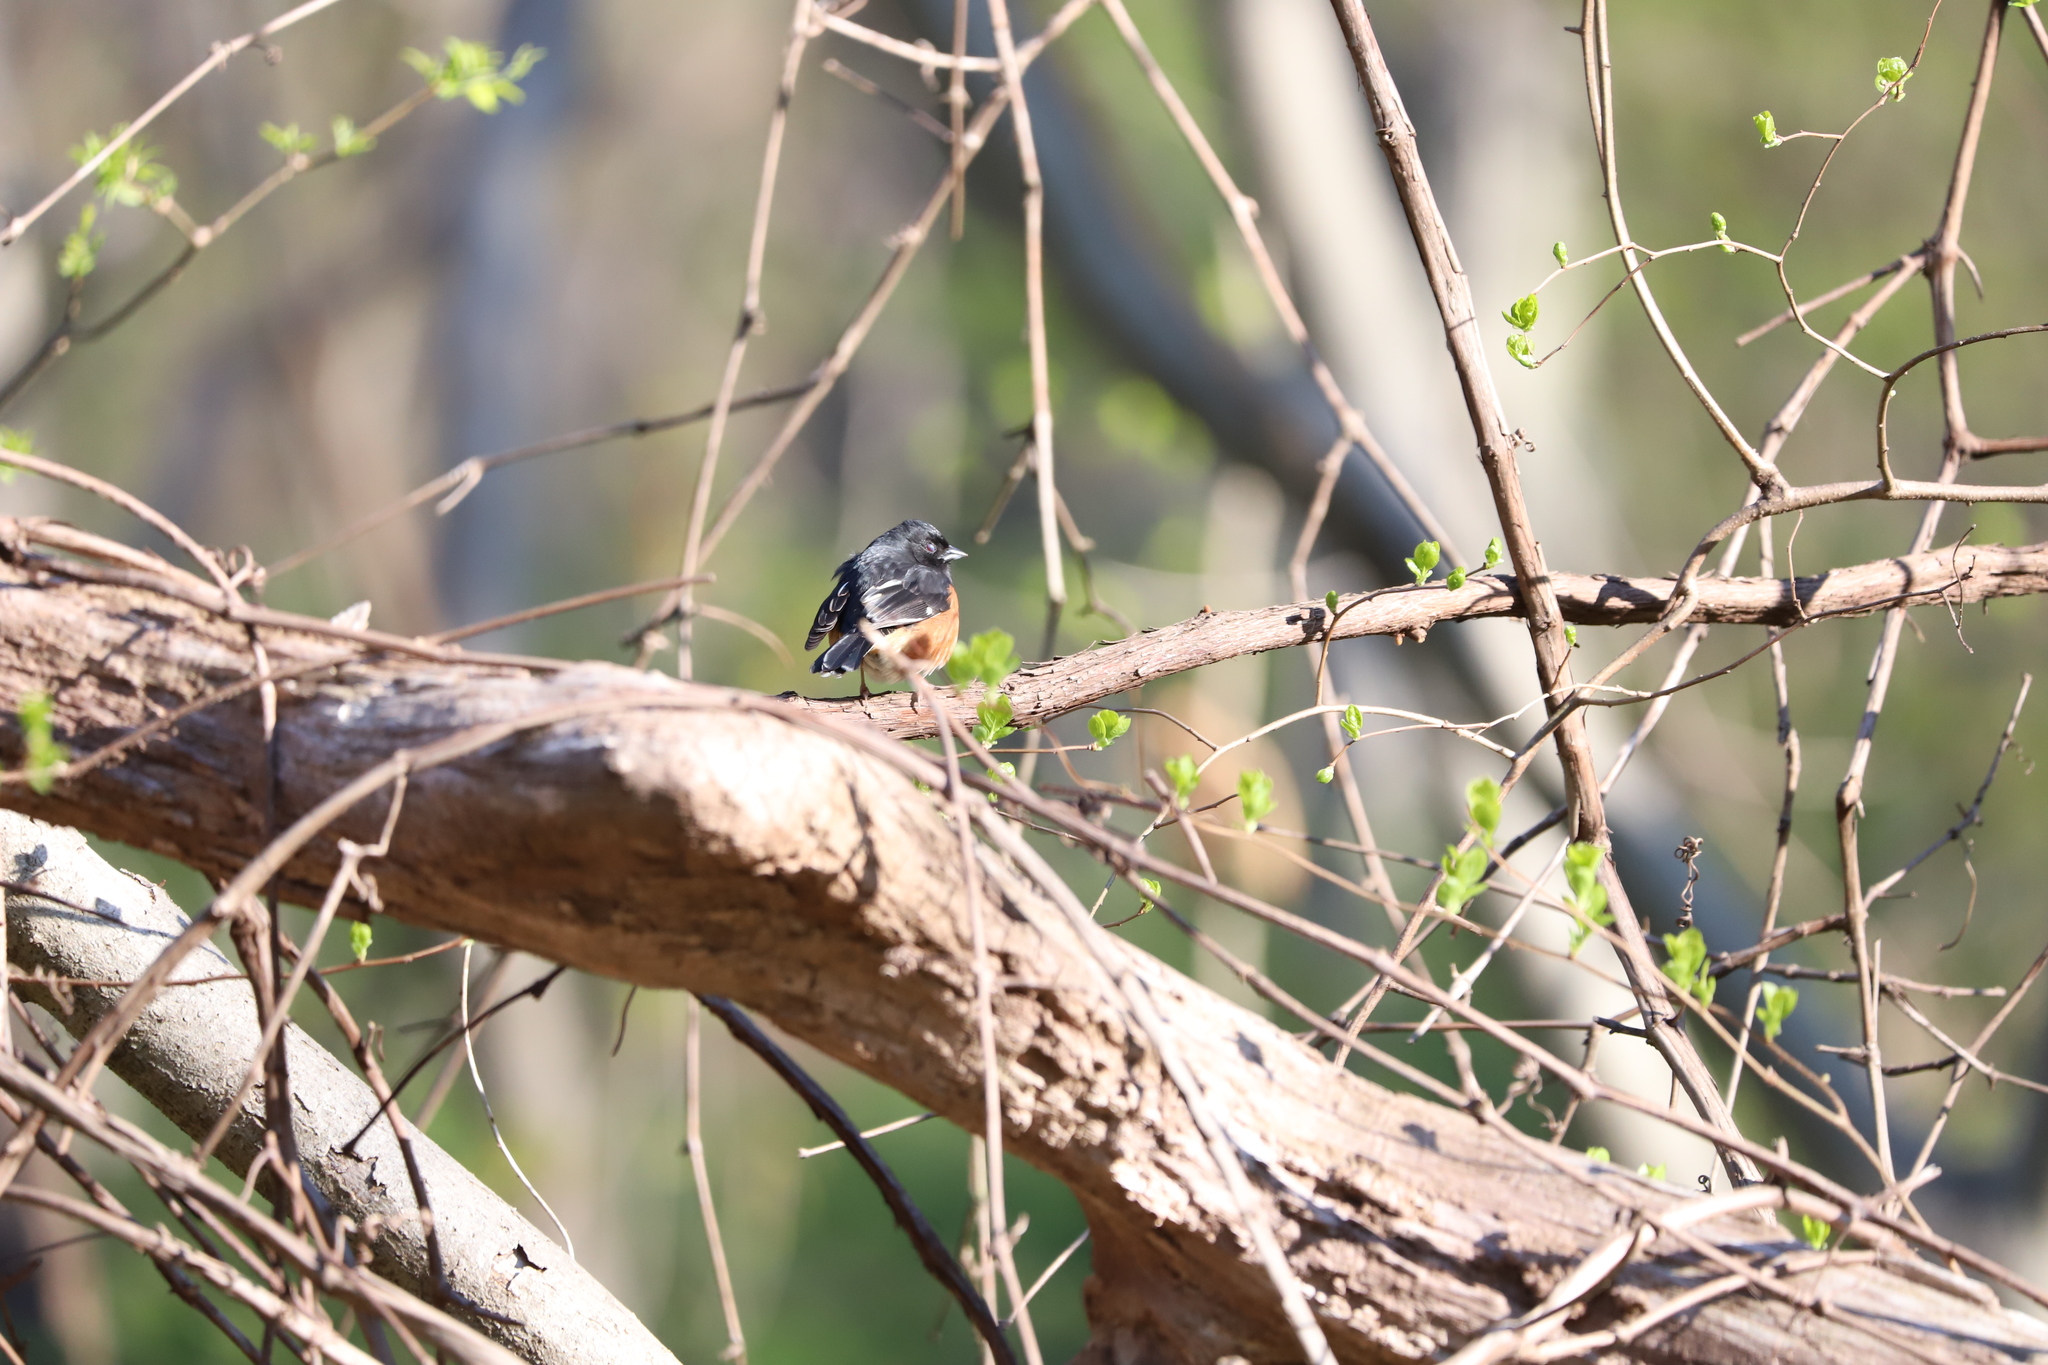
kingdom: Animalia
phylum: Chordata
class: Aves
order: Passeriformes
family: Passerellidae
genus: Pipilo
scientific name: Pipilo erythrophthalmus
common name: Eastern towhee
